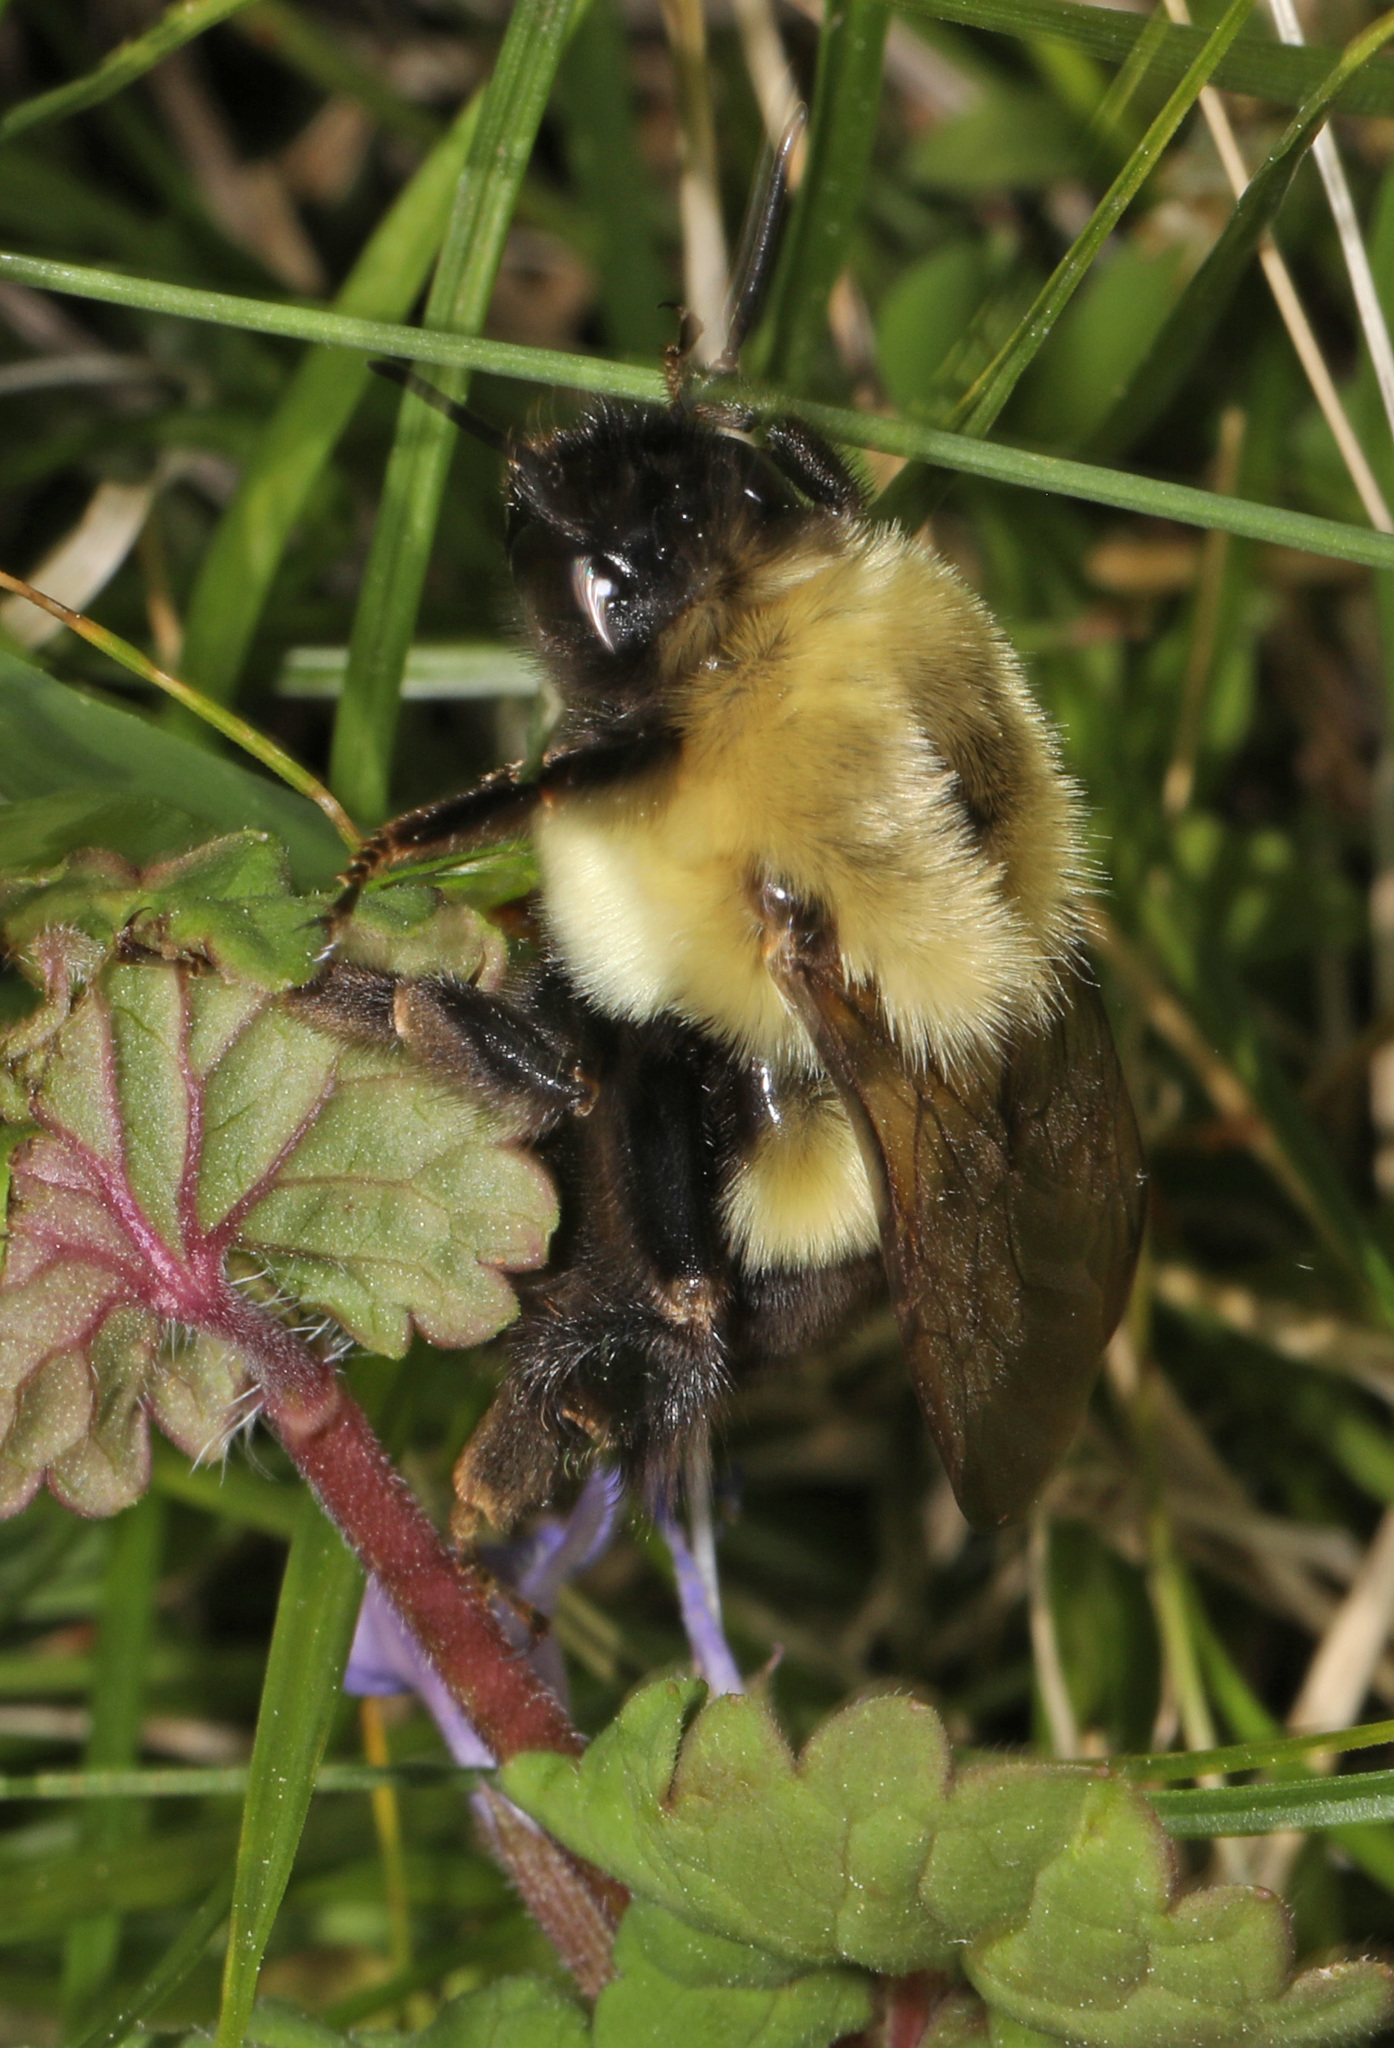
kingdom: Animalia
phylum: Arthropoda
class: Insecta
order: Hymenoptera
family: Apidae
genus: Bombus
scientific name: Bombus impatiens
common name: Common eastern bumble bee
